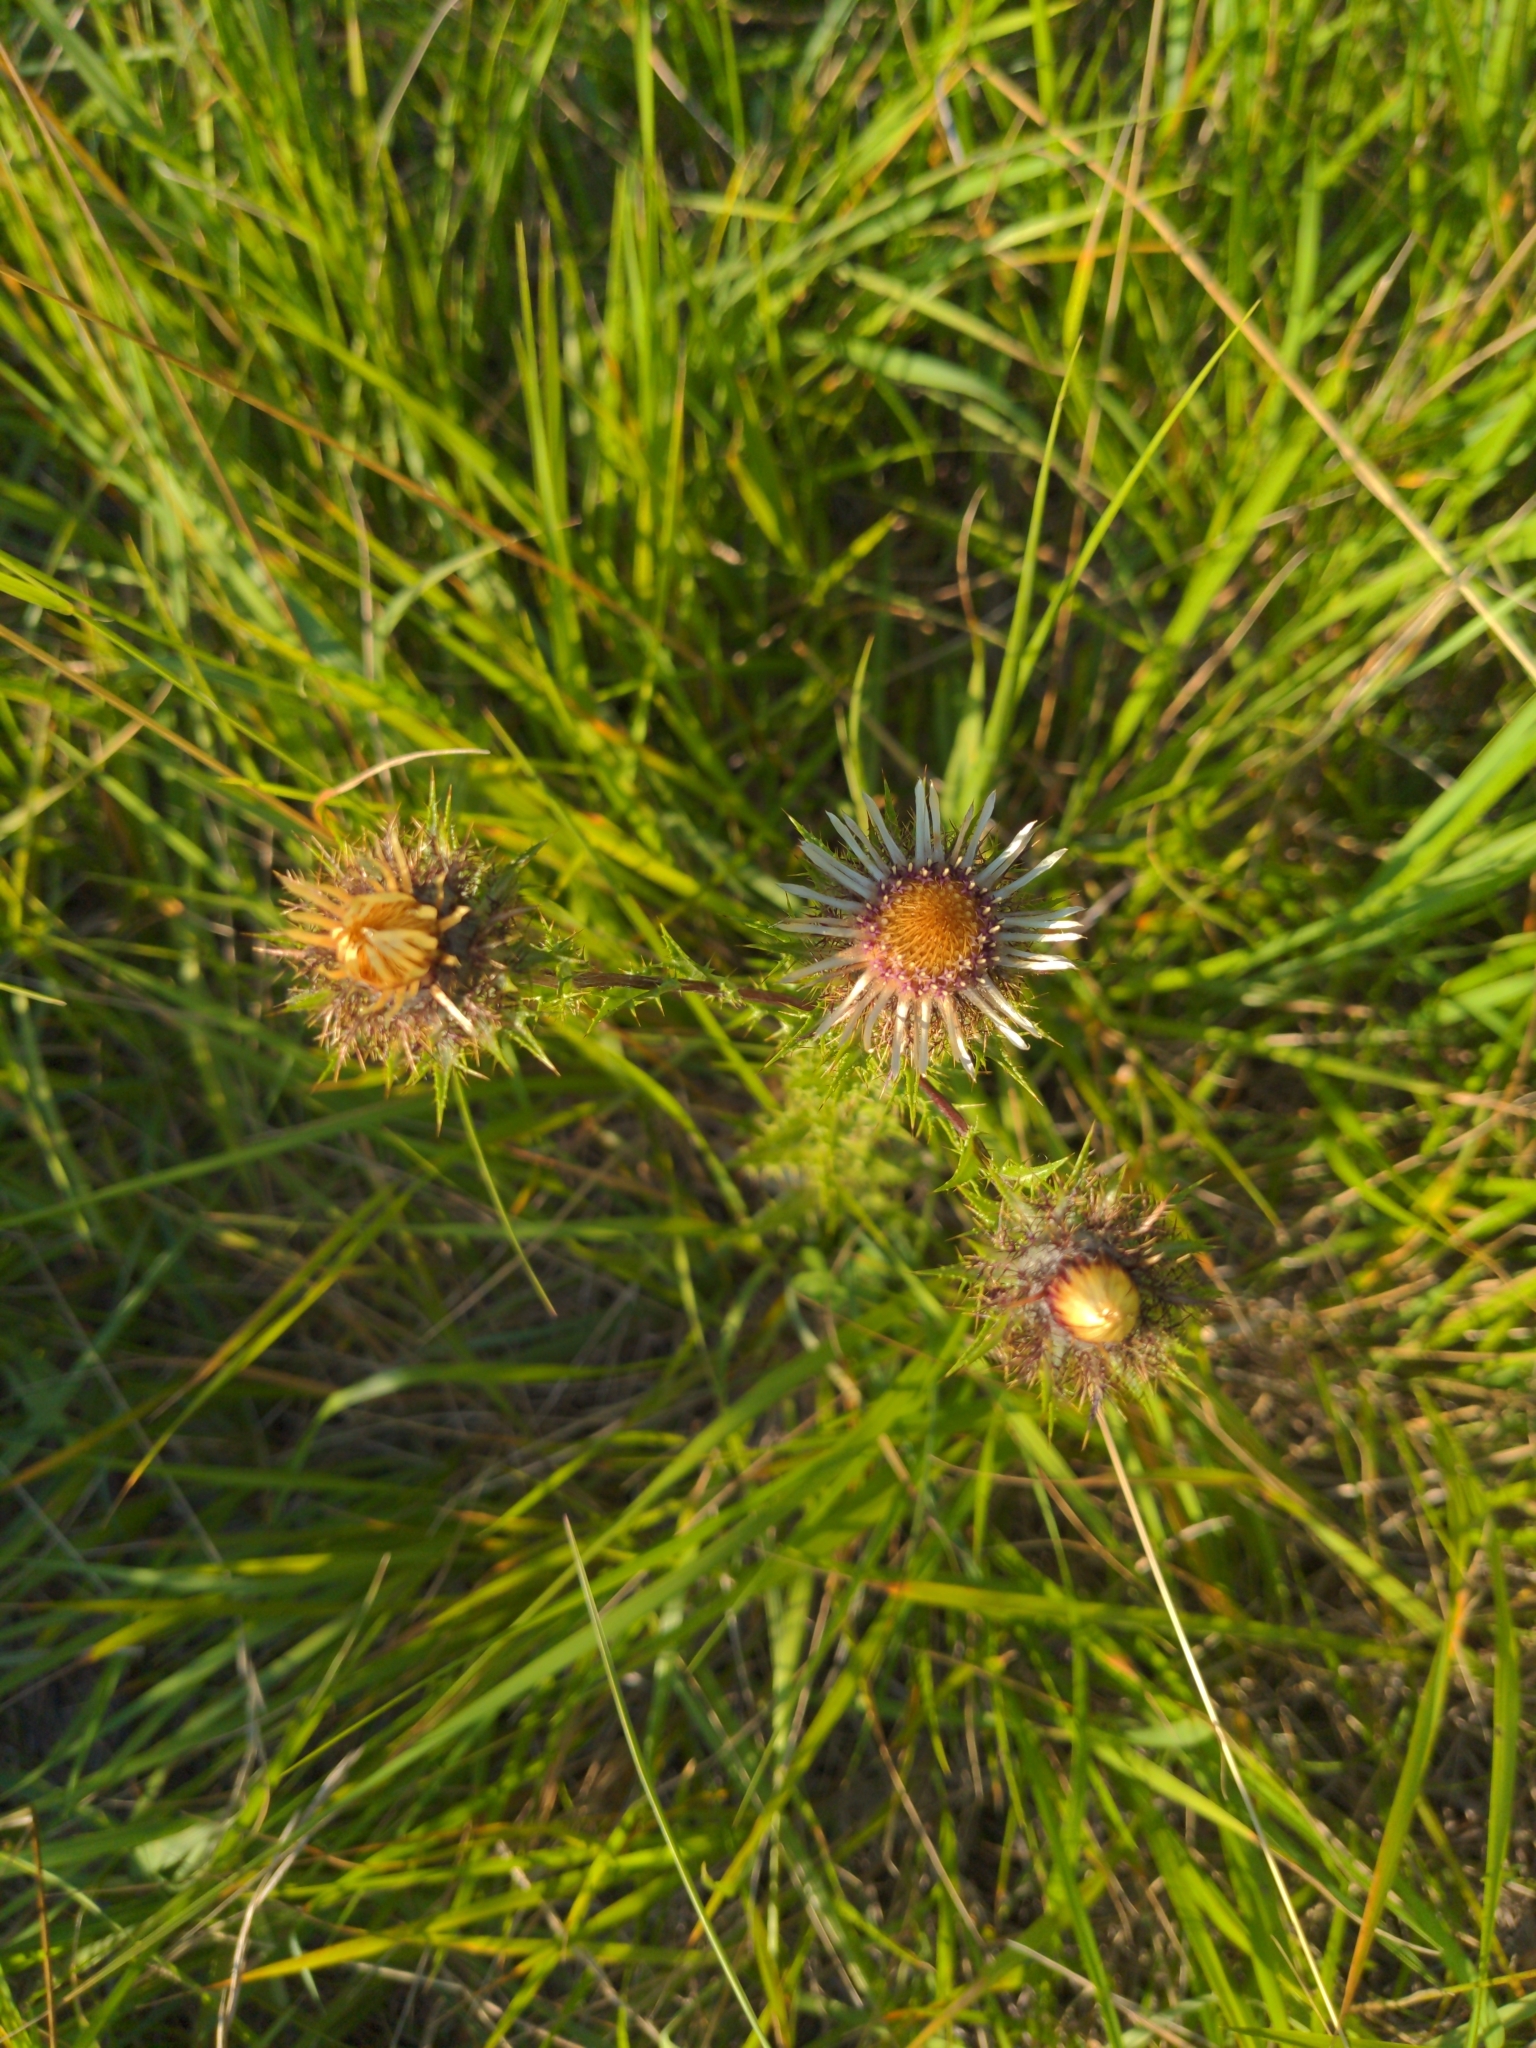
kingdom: Plantae
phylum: Tracheophyta
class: Magnoliopsida
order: Asterales
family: Asteraceae
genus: Carlina
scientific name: Carlina vulgaris
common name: Carline thistle
